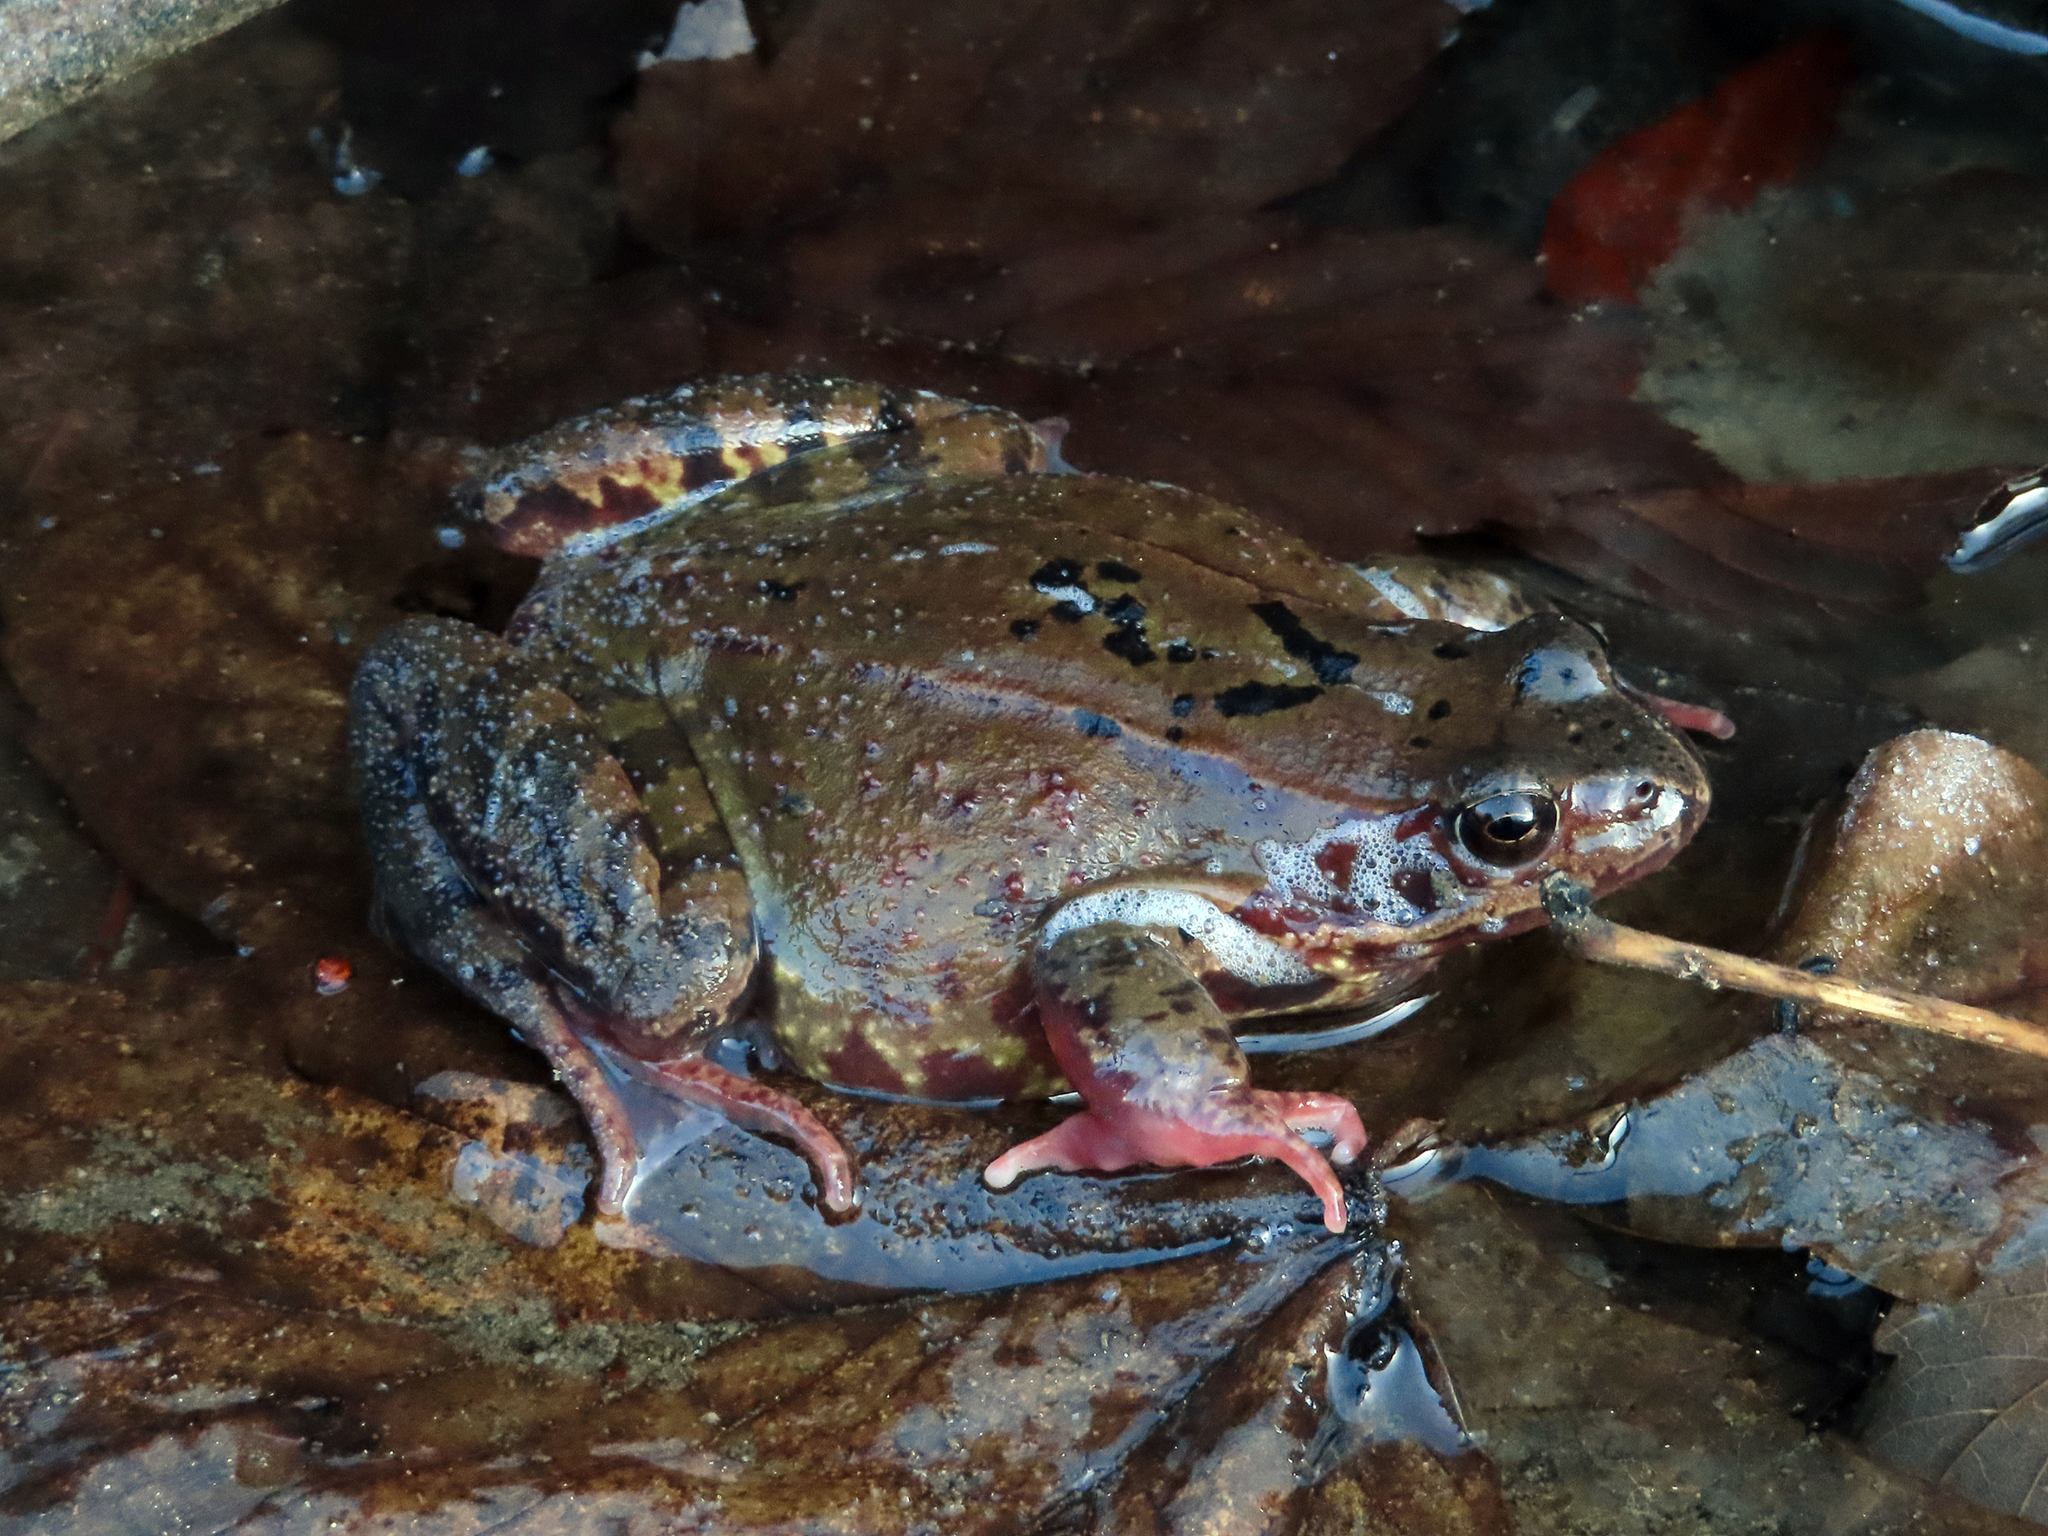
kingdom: Animalia
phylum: Chordata
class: Amphibia
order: Anura
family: Ranidae
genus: Rana
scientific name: Rana temporaria
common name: Common frog
